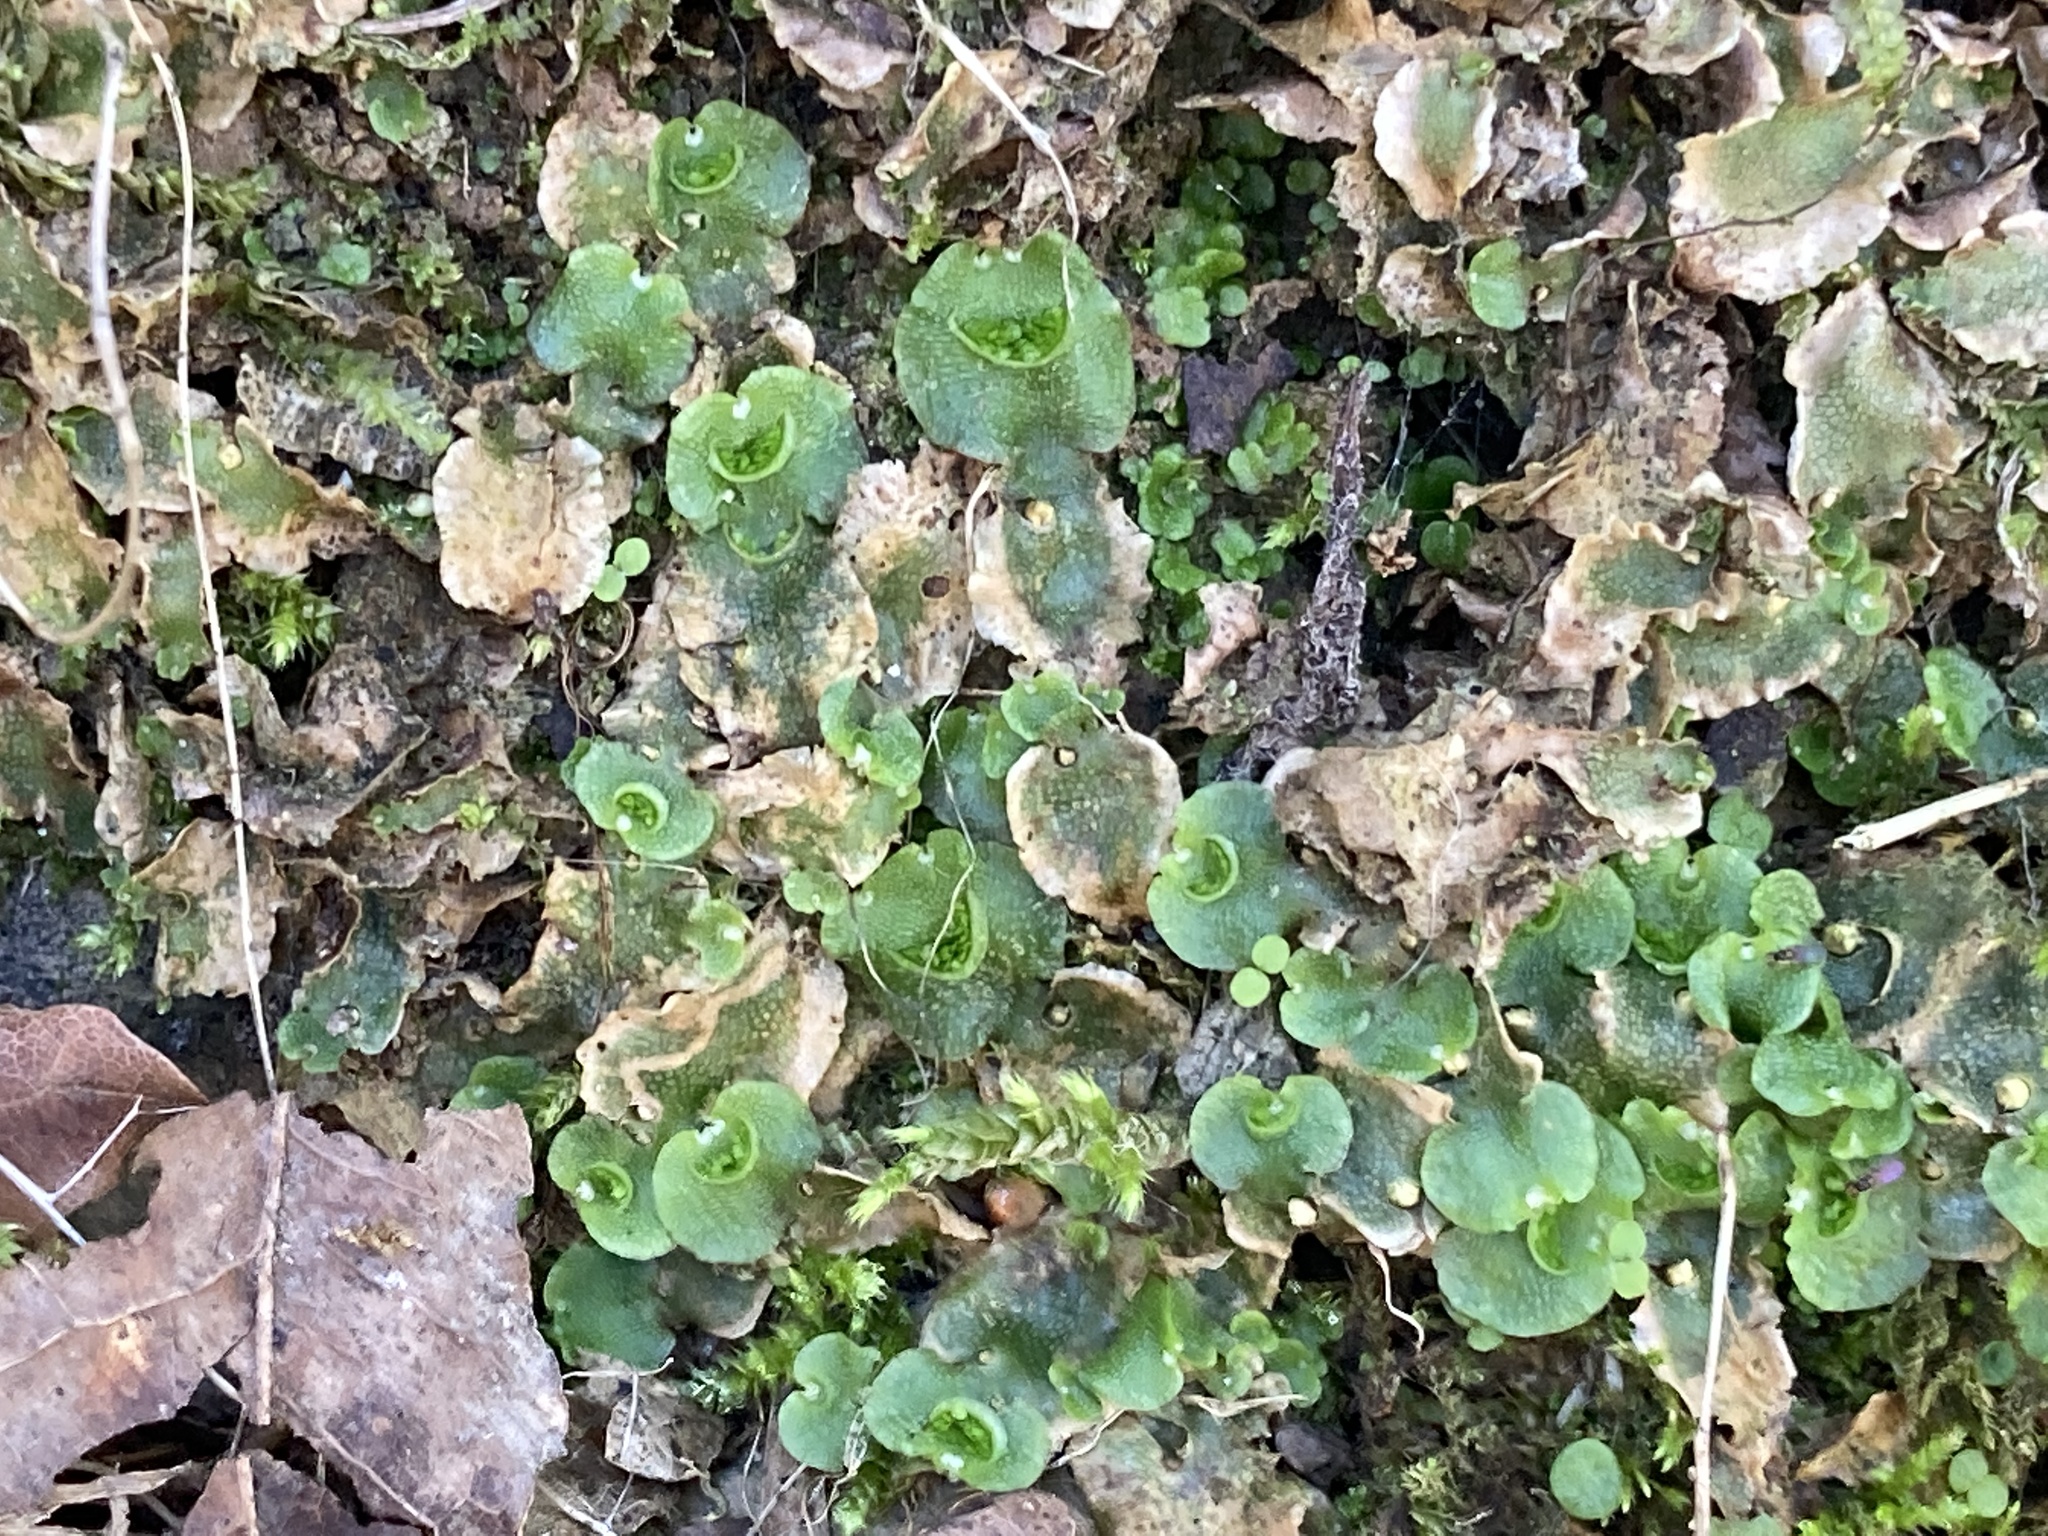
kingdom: Plantae
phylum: Marchantiophyta
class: Marchantiopsida
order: Lunulariales
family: Lunulariaceae
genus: Lunularia
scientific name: Lunularia cruciata
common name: Crescent-cup liverwort
